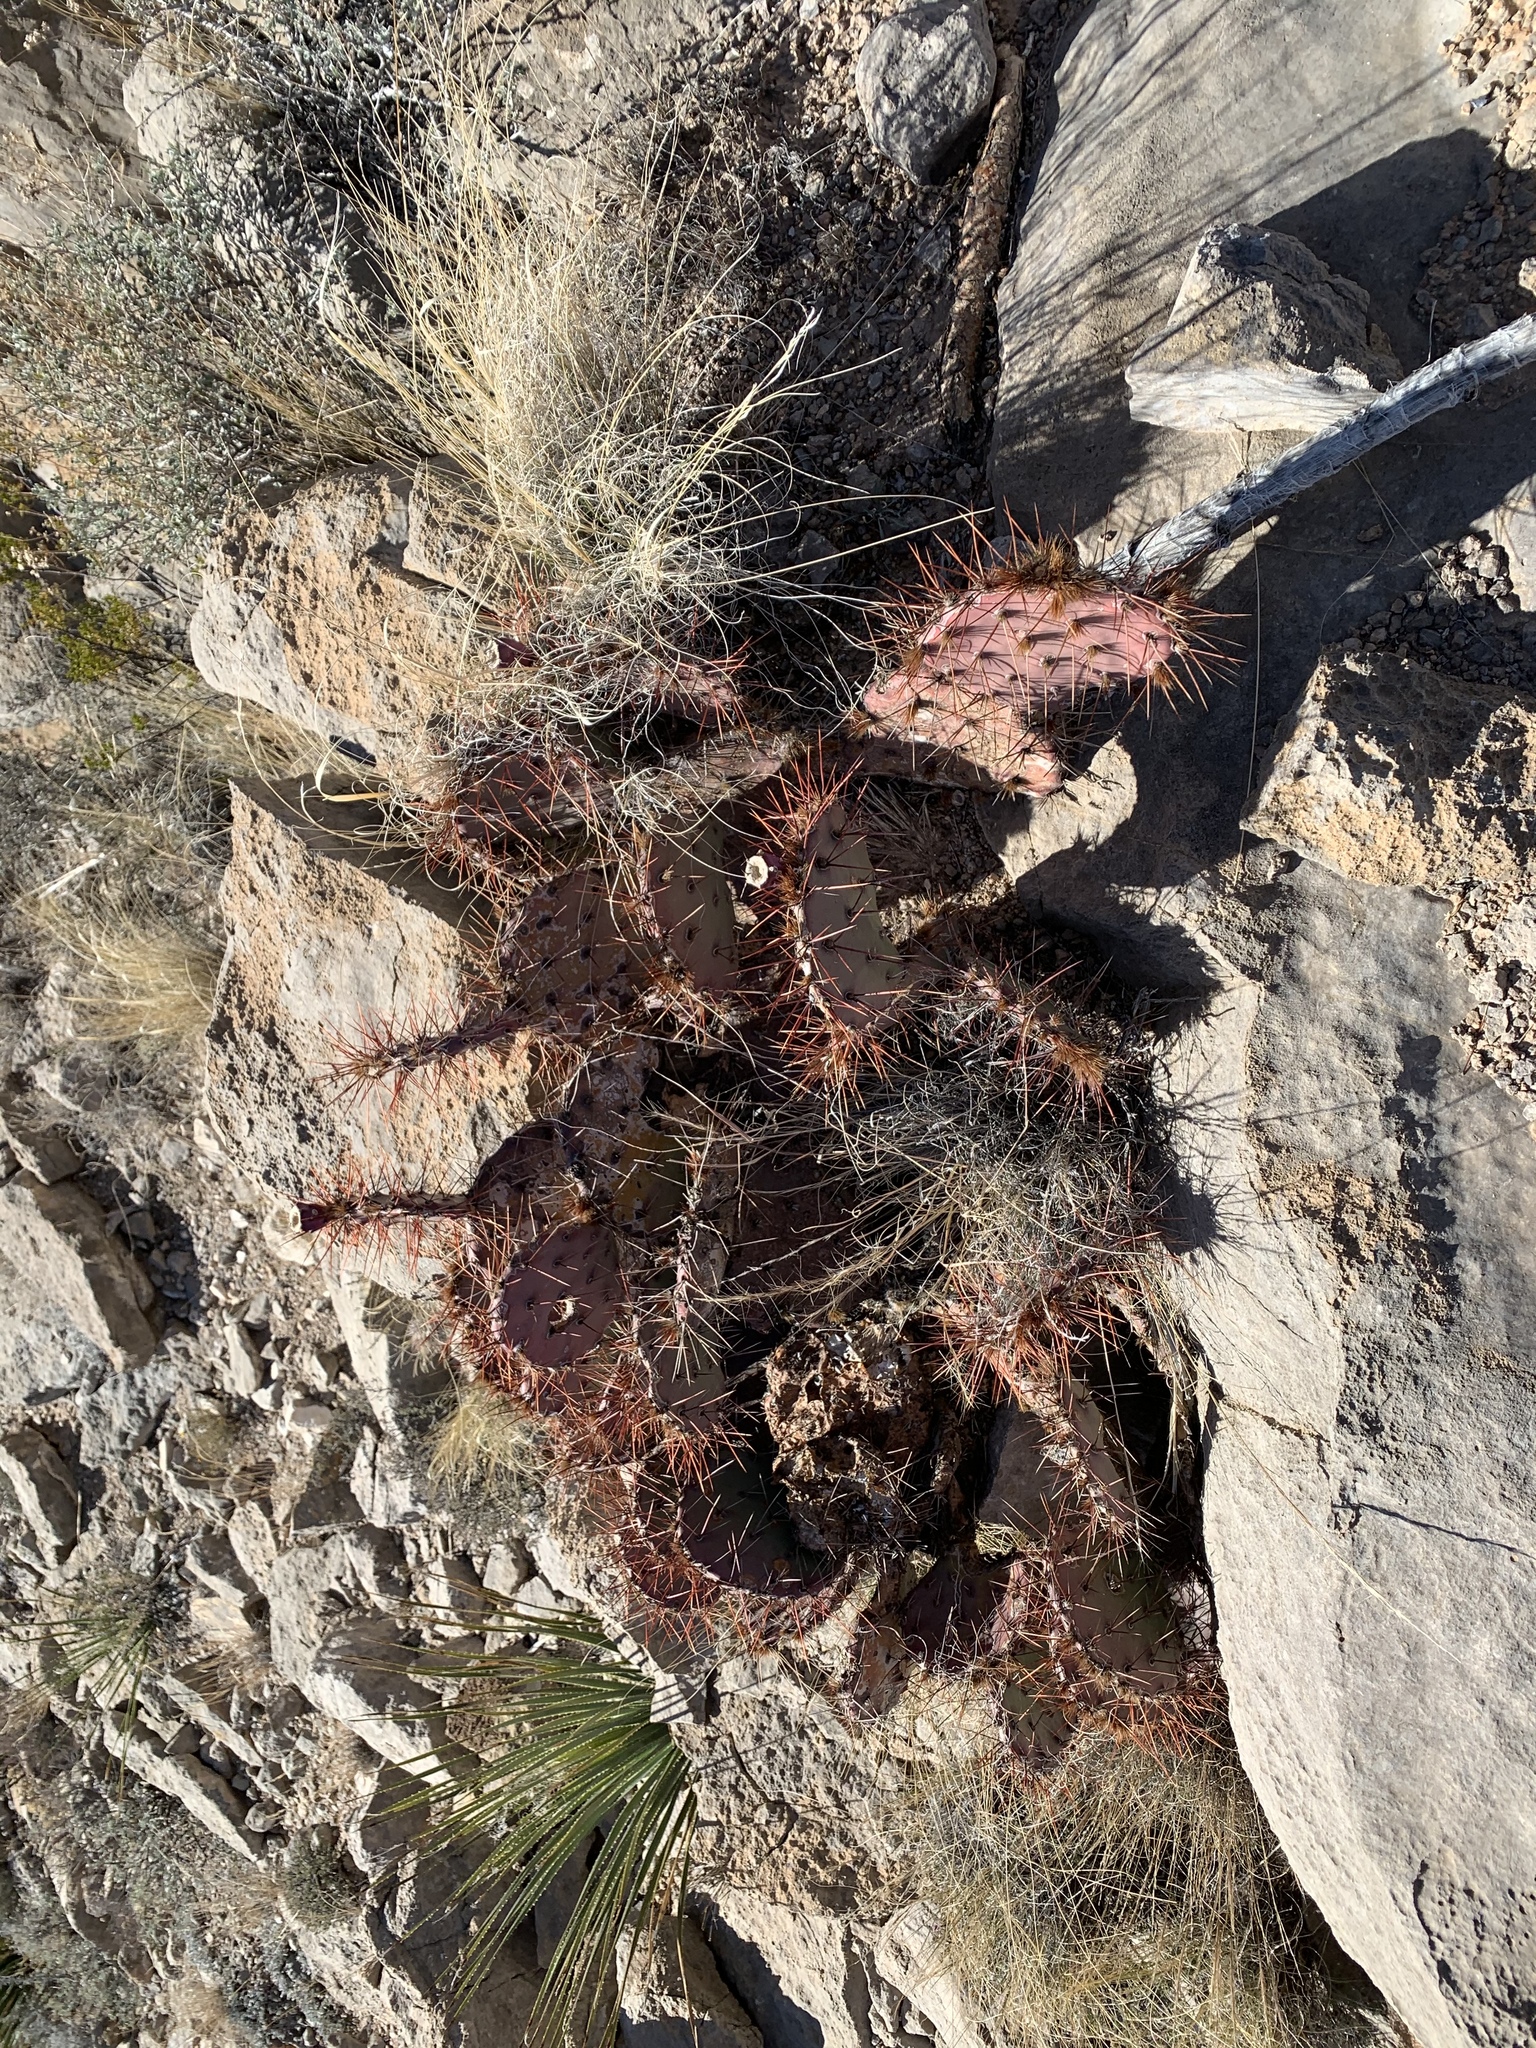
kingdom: Plantae
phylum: Tracheophyta
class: Magnoliopsida
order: Caryophyllales
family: Cactaceae
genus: Opuntia
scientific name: Opuntia macrocentra
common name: Purple prickly-pear
